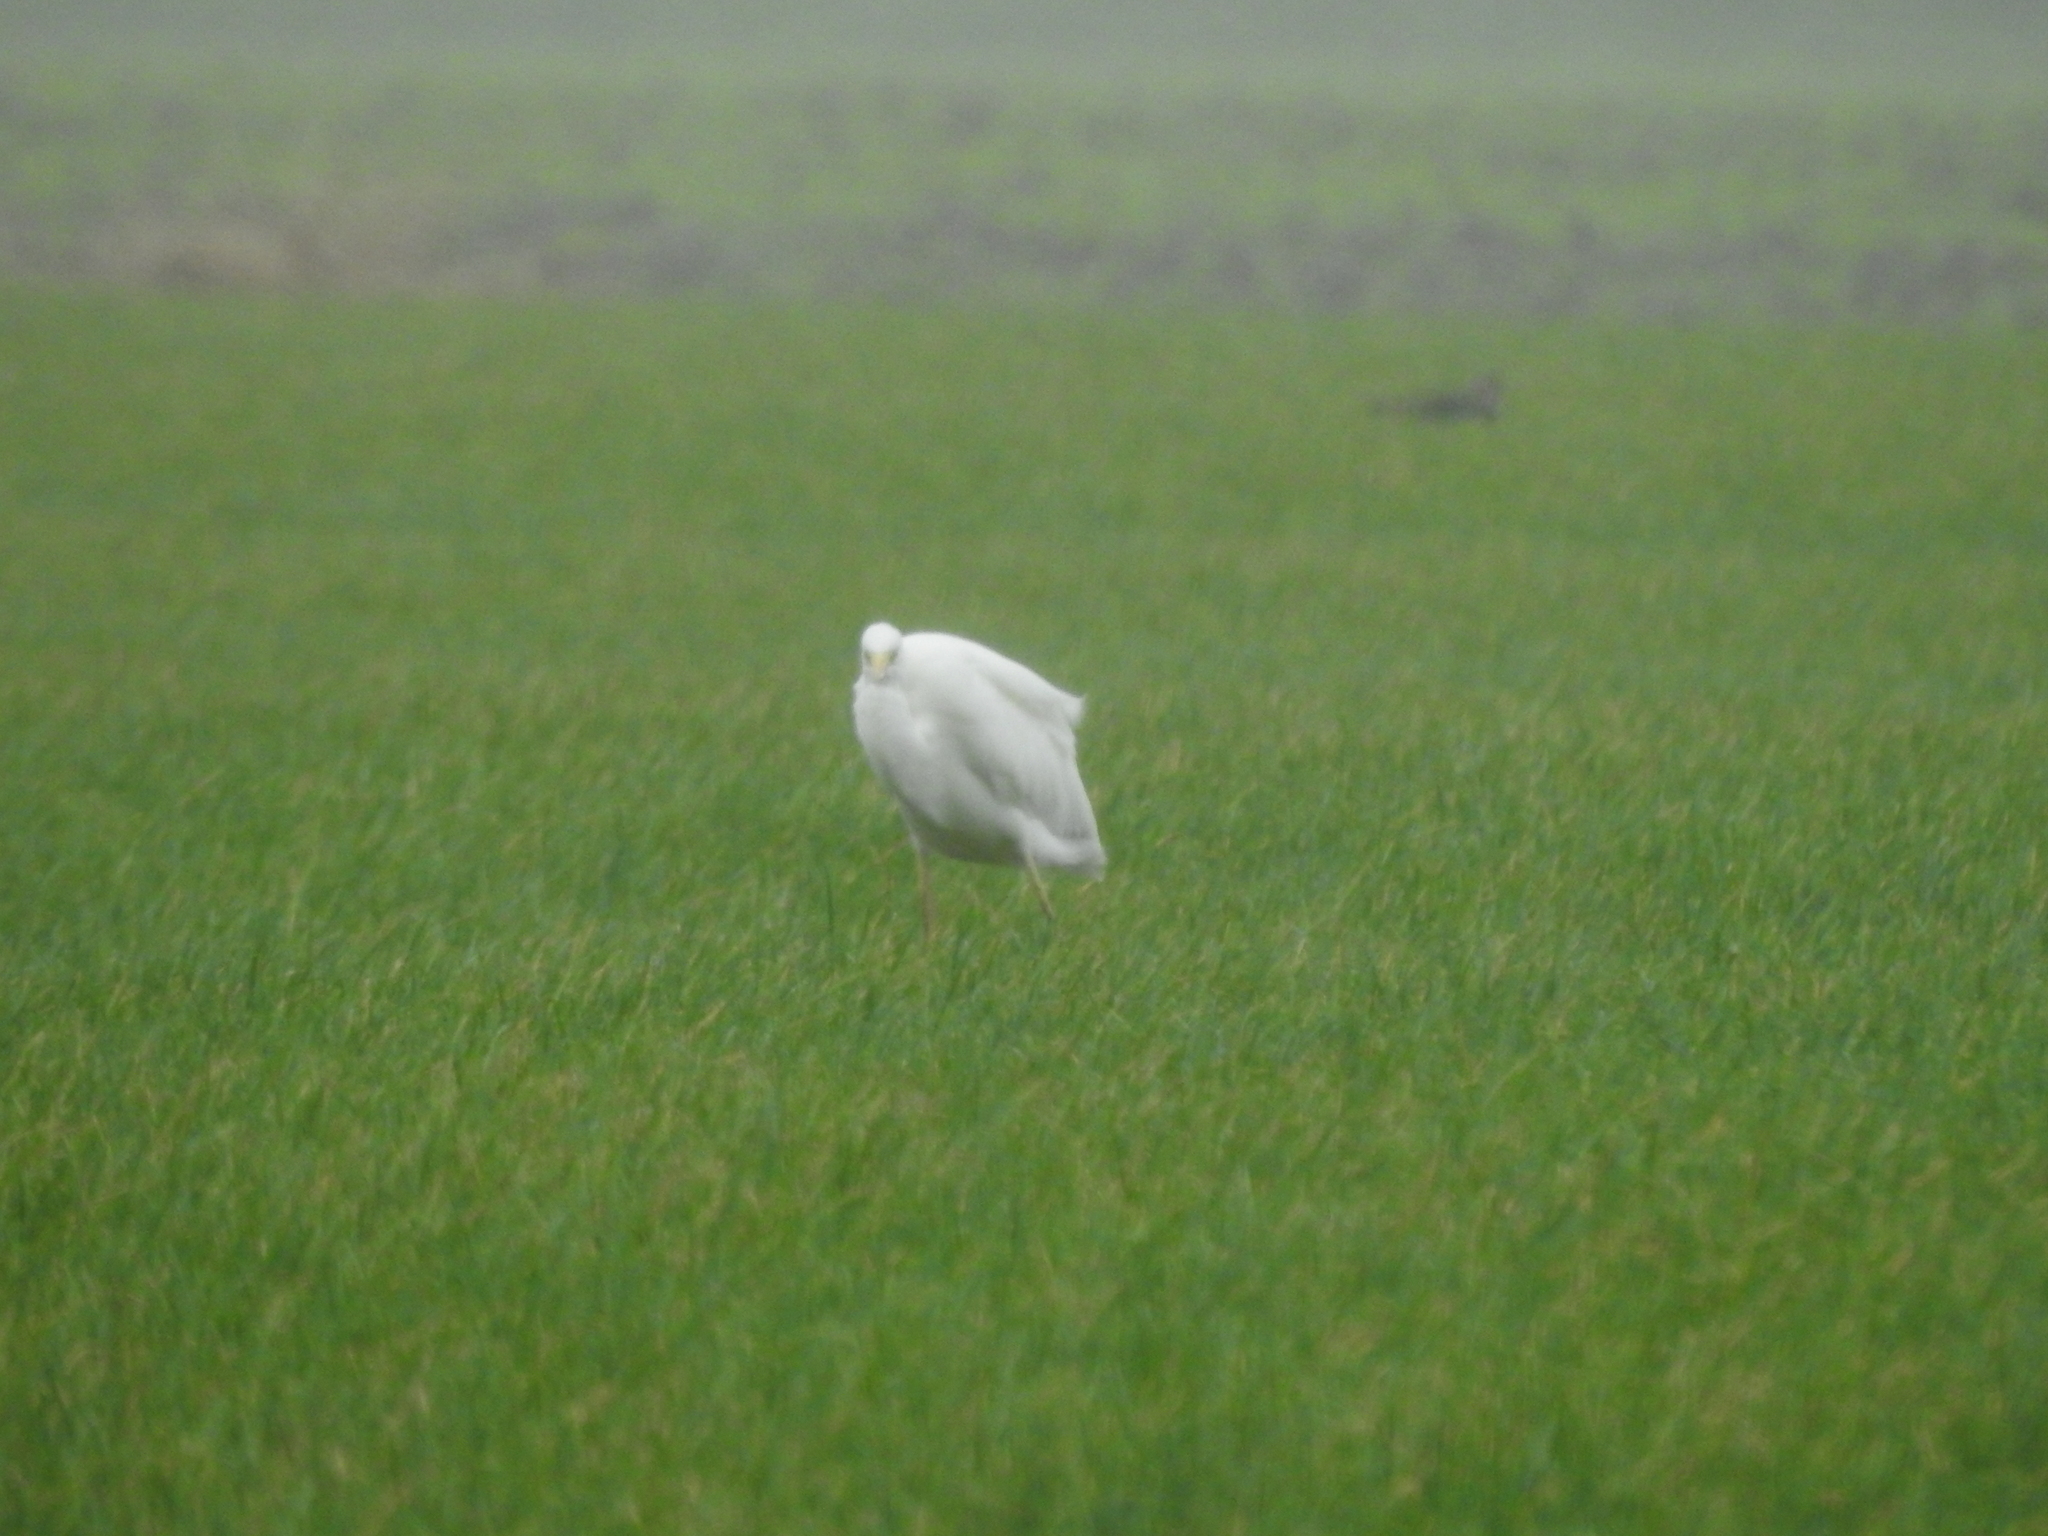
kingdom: Animalia
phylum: Chordata
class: Aves
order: Pelecaniformes
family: Ardeidae
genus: Ardea
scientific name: Ardea alba
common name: Great egret
